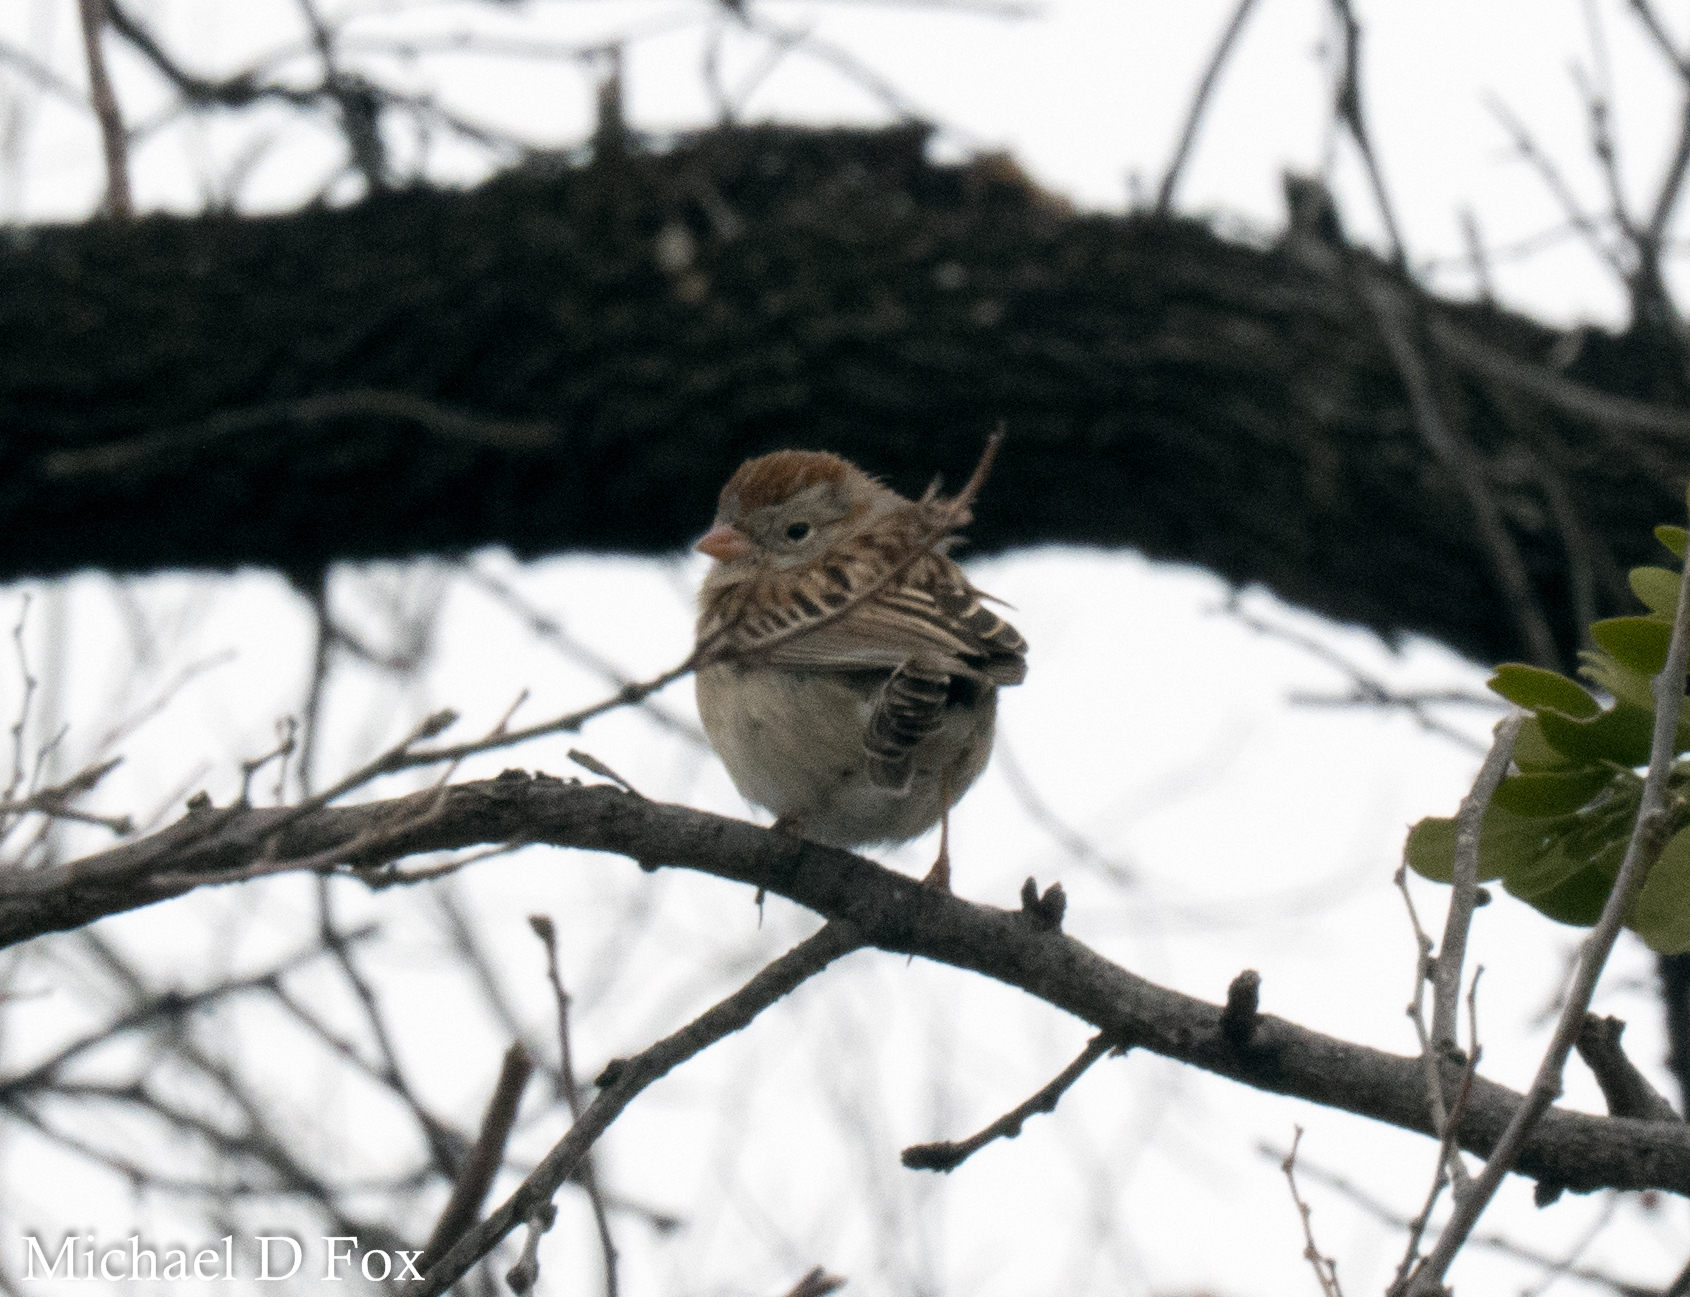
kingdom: Animalia
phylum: Chordata
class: Aves
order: Passeriformes
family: Passerellidae
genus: Spizella
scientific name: Spizella pusilla
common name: Field sparrow
